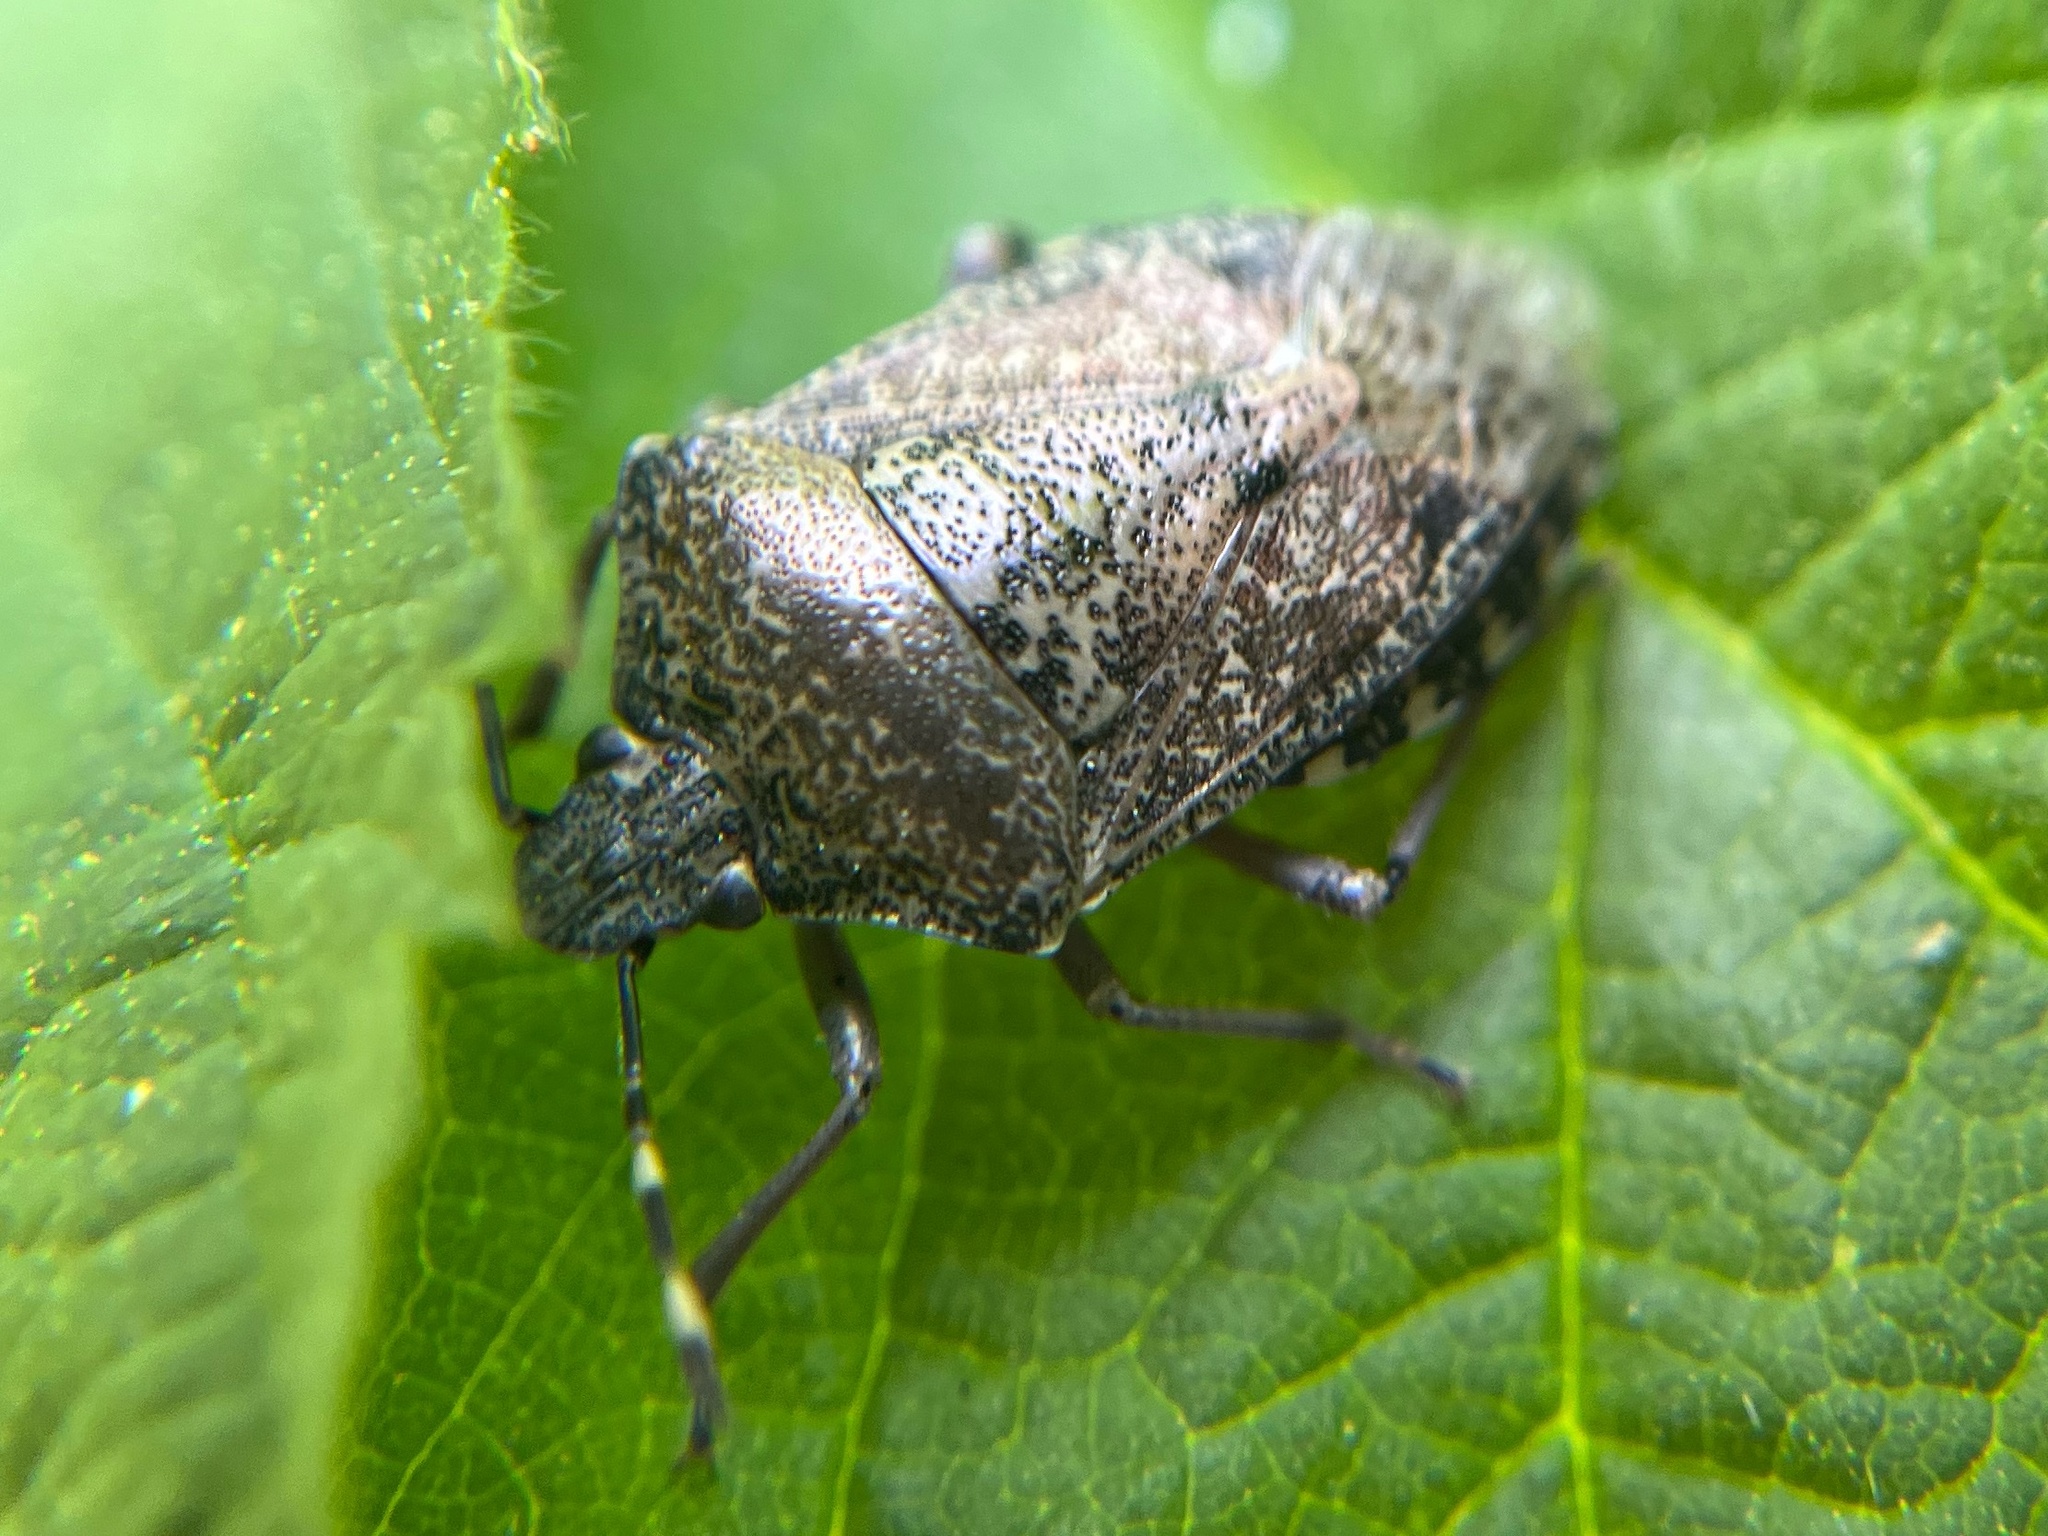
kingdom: Animalia
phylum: Arthropoda
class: Insecta
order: Hemiptera
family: Pentatomidae
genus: Rhaphigaster
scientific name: Rhaphigaster nebulosa
